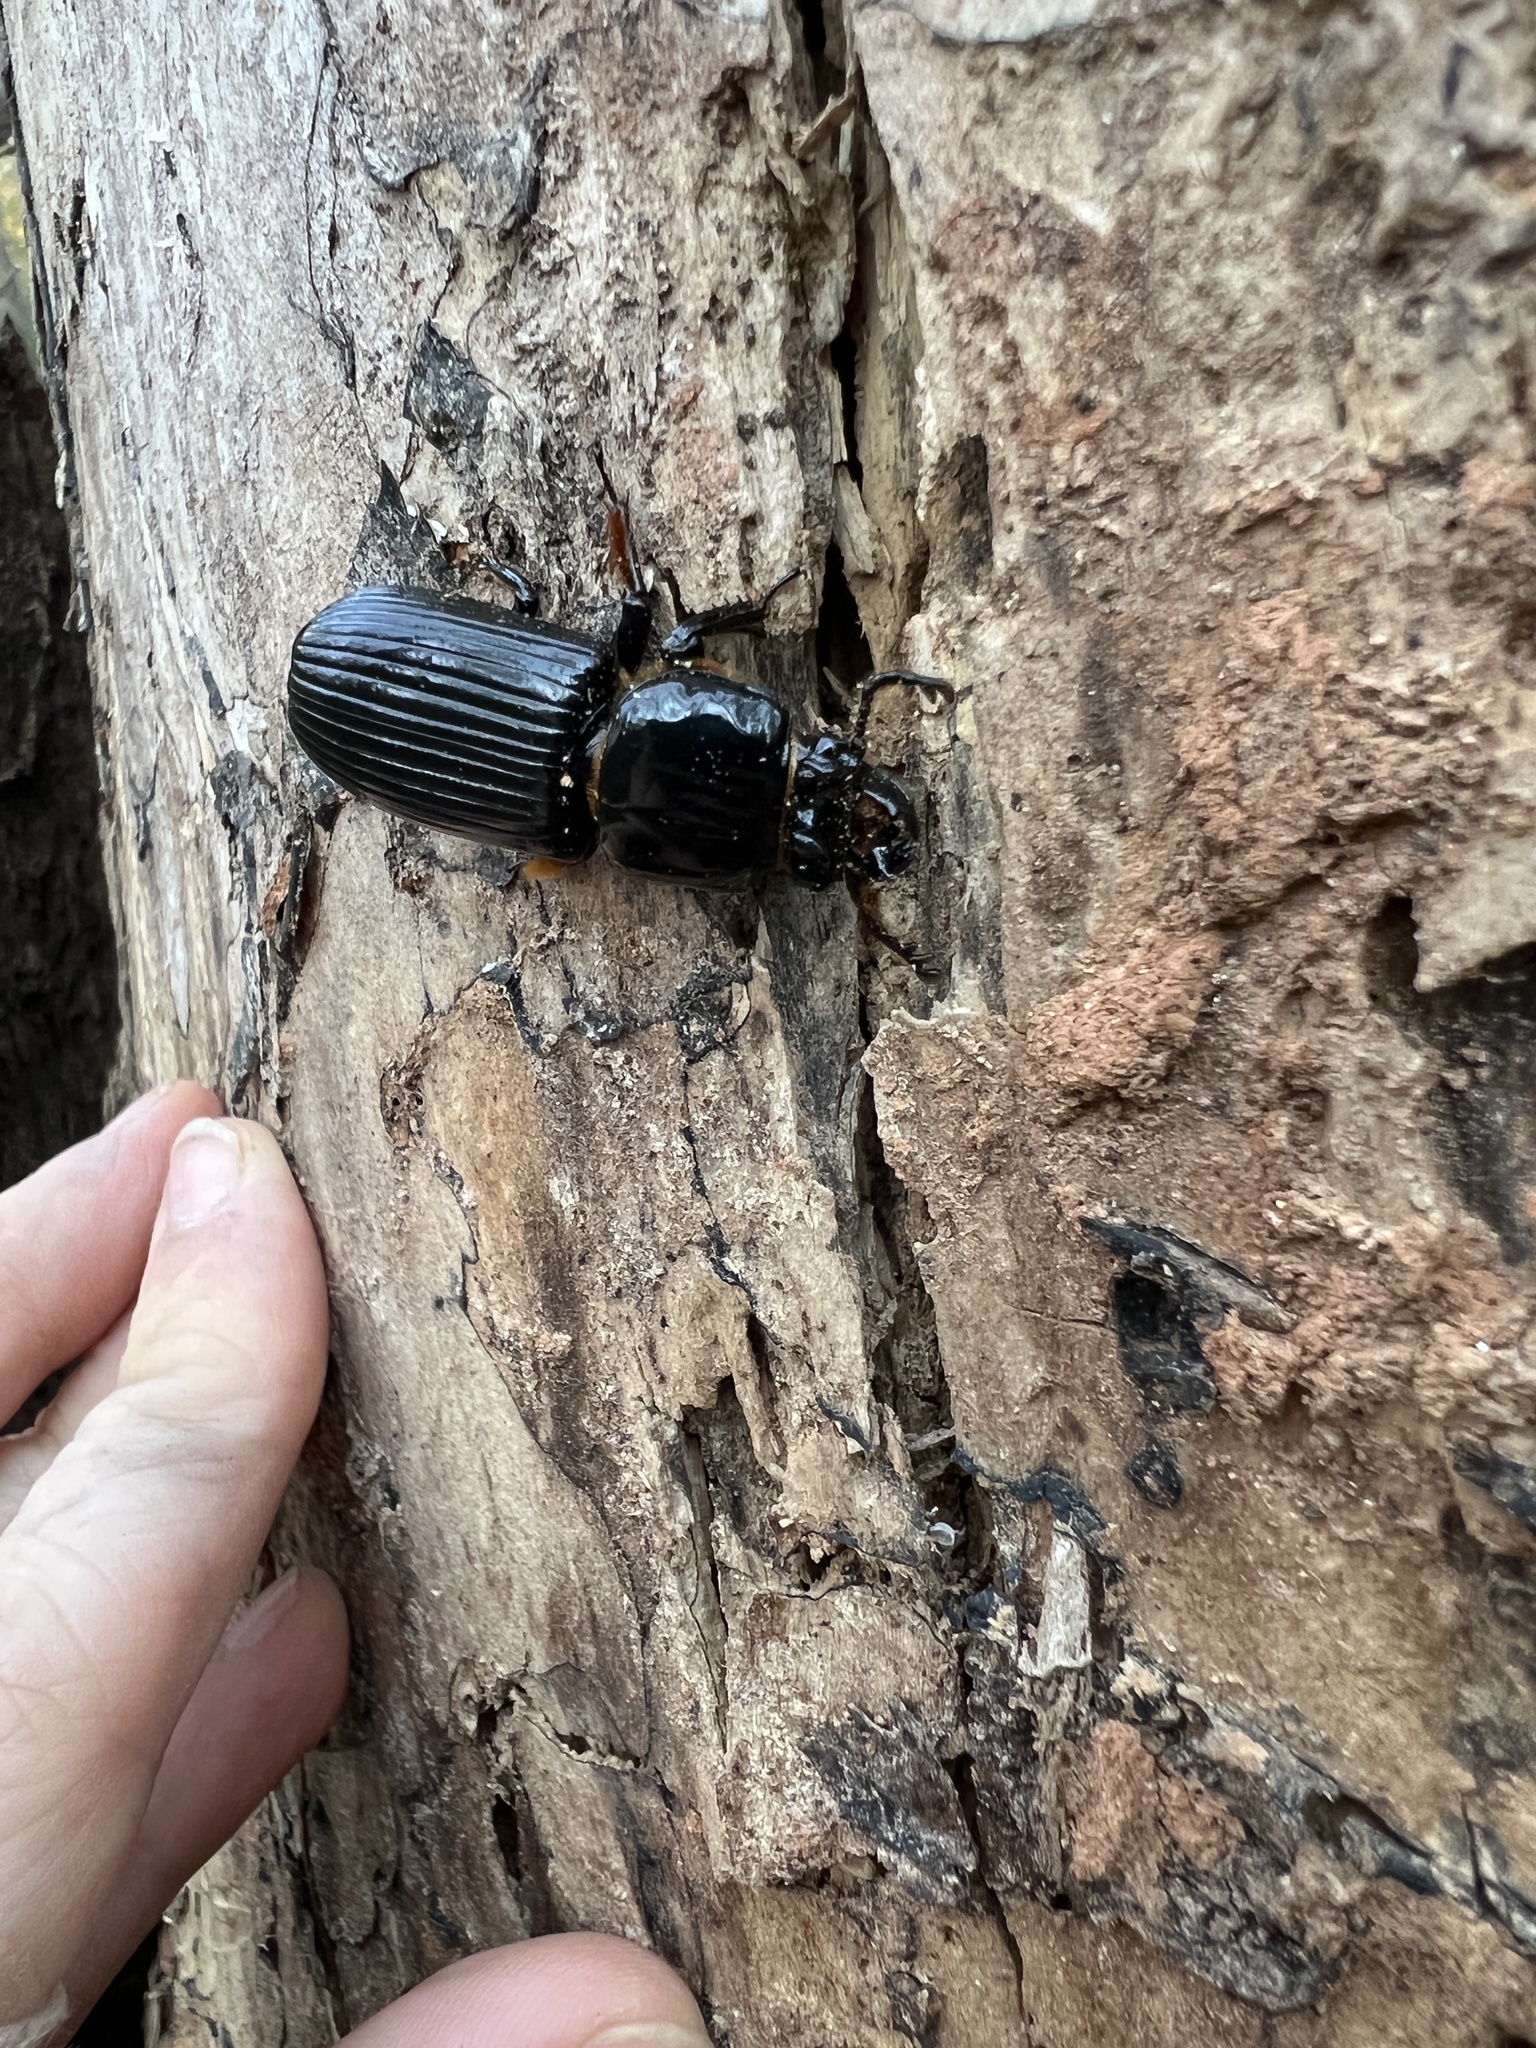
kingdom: Animalia
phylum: Arthropoda
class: Insecta
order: Coleoptera
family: Passalidae
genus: Odontotaenius
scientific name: Odontotaenius disjunctus
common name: Patent leather beetle
